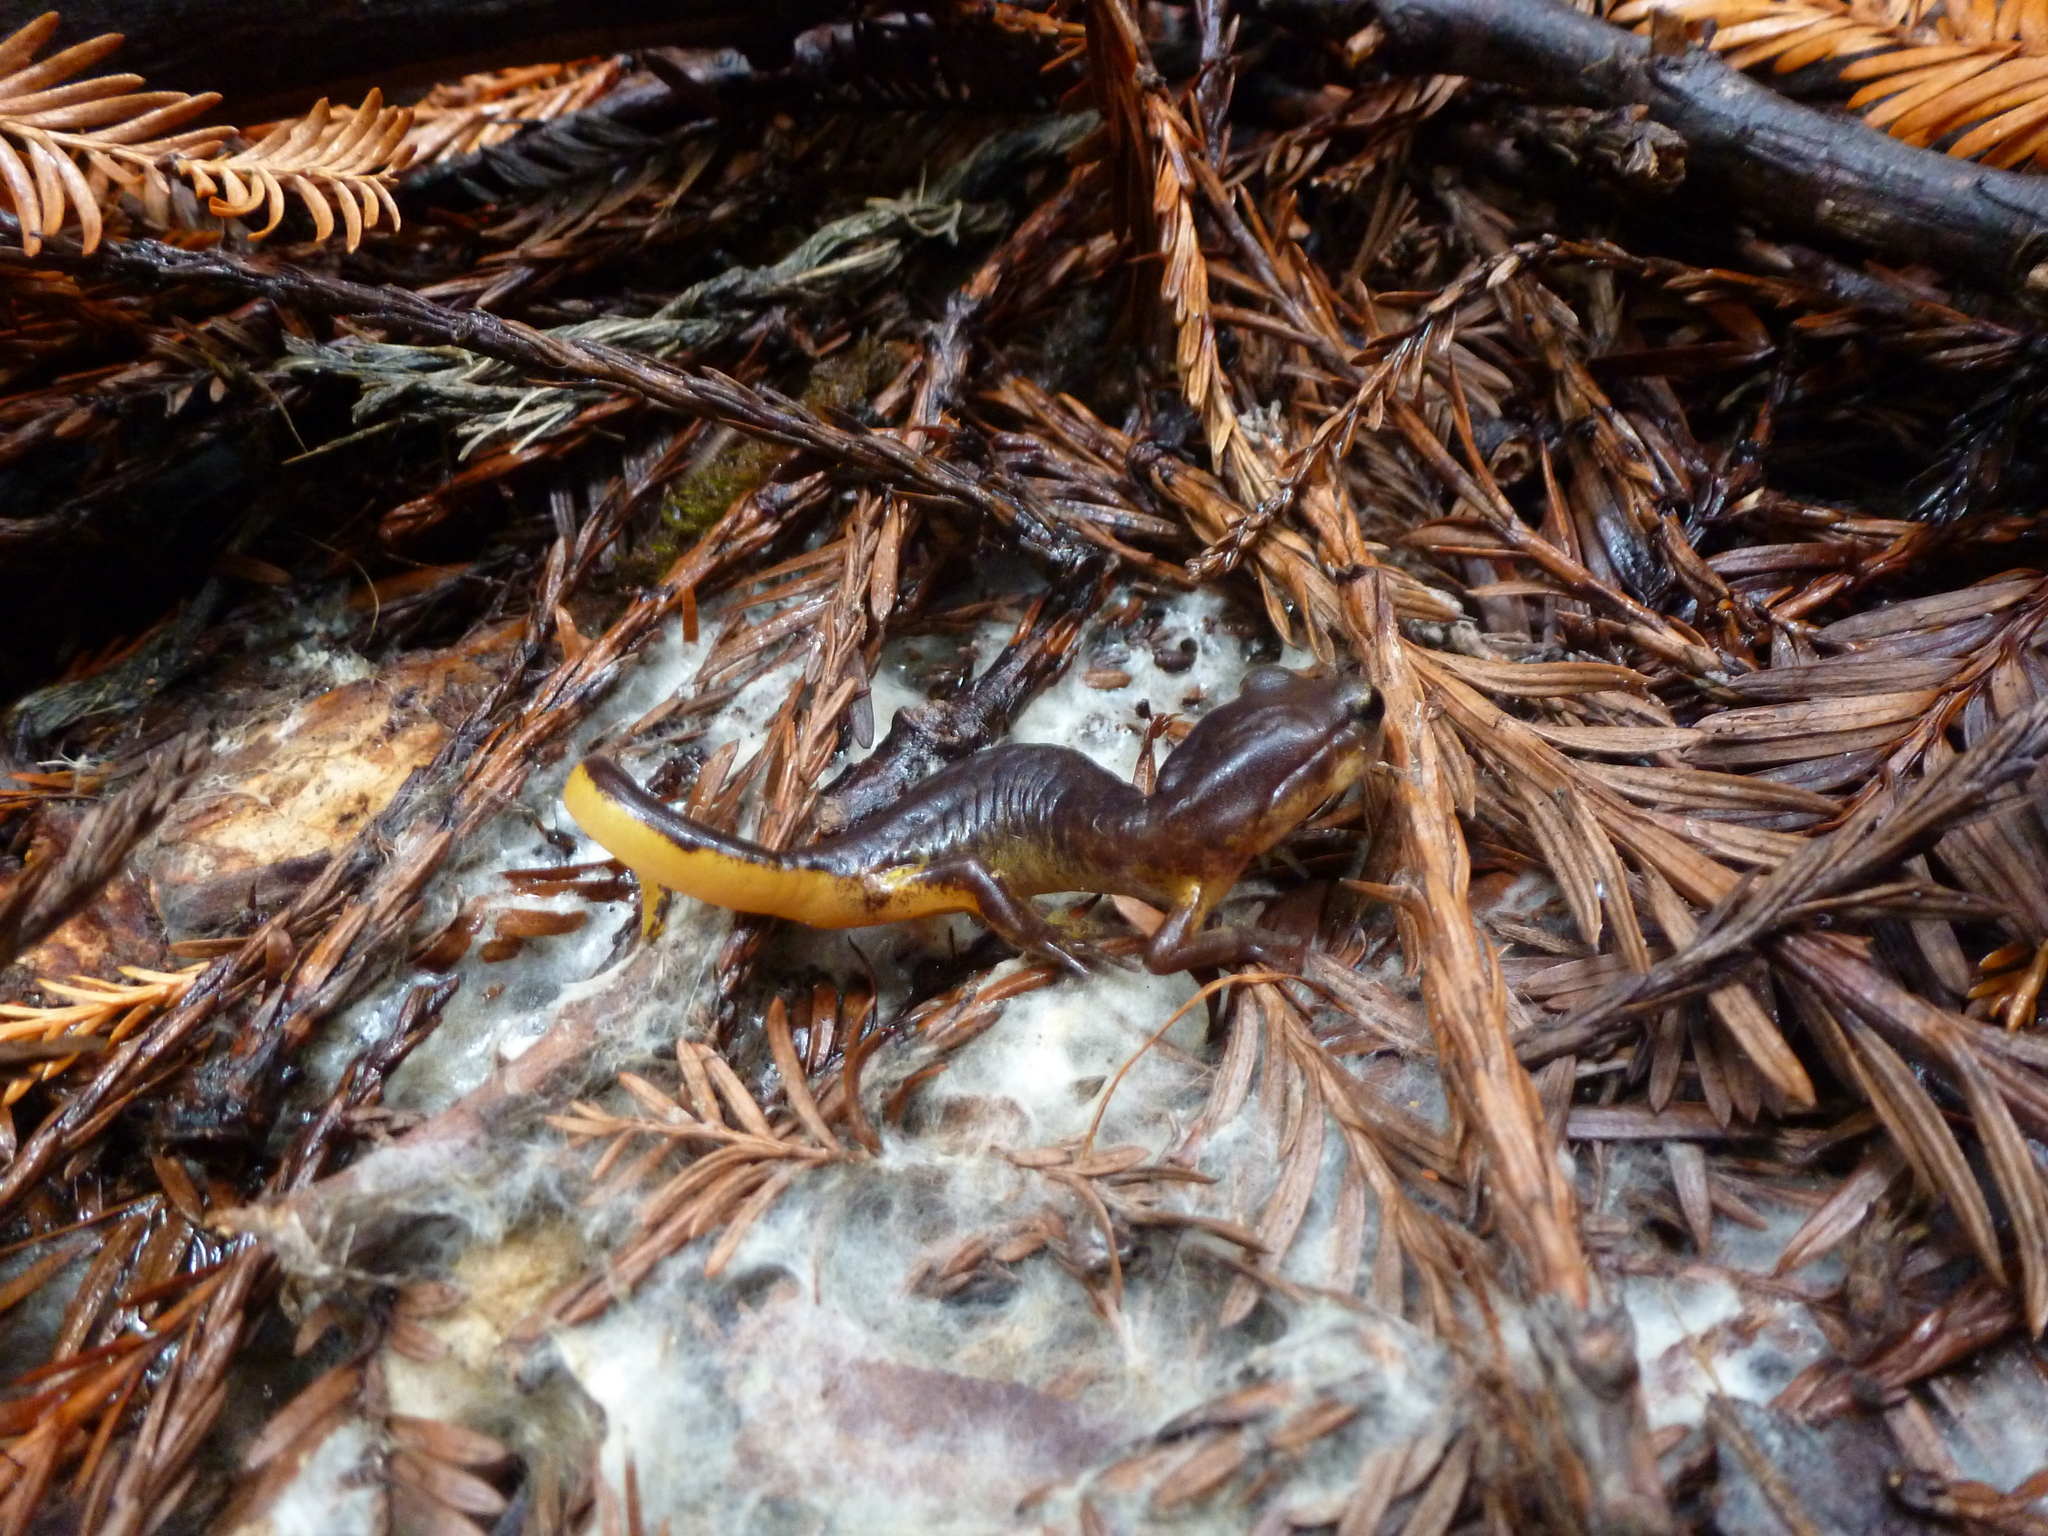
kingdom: Animalia
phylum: Chordata
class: Amphibia
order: Caudata
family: Plethodontidae
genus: Ensatina
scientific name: Ensatina eschscholtzii
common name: Ensatina
